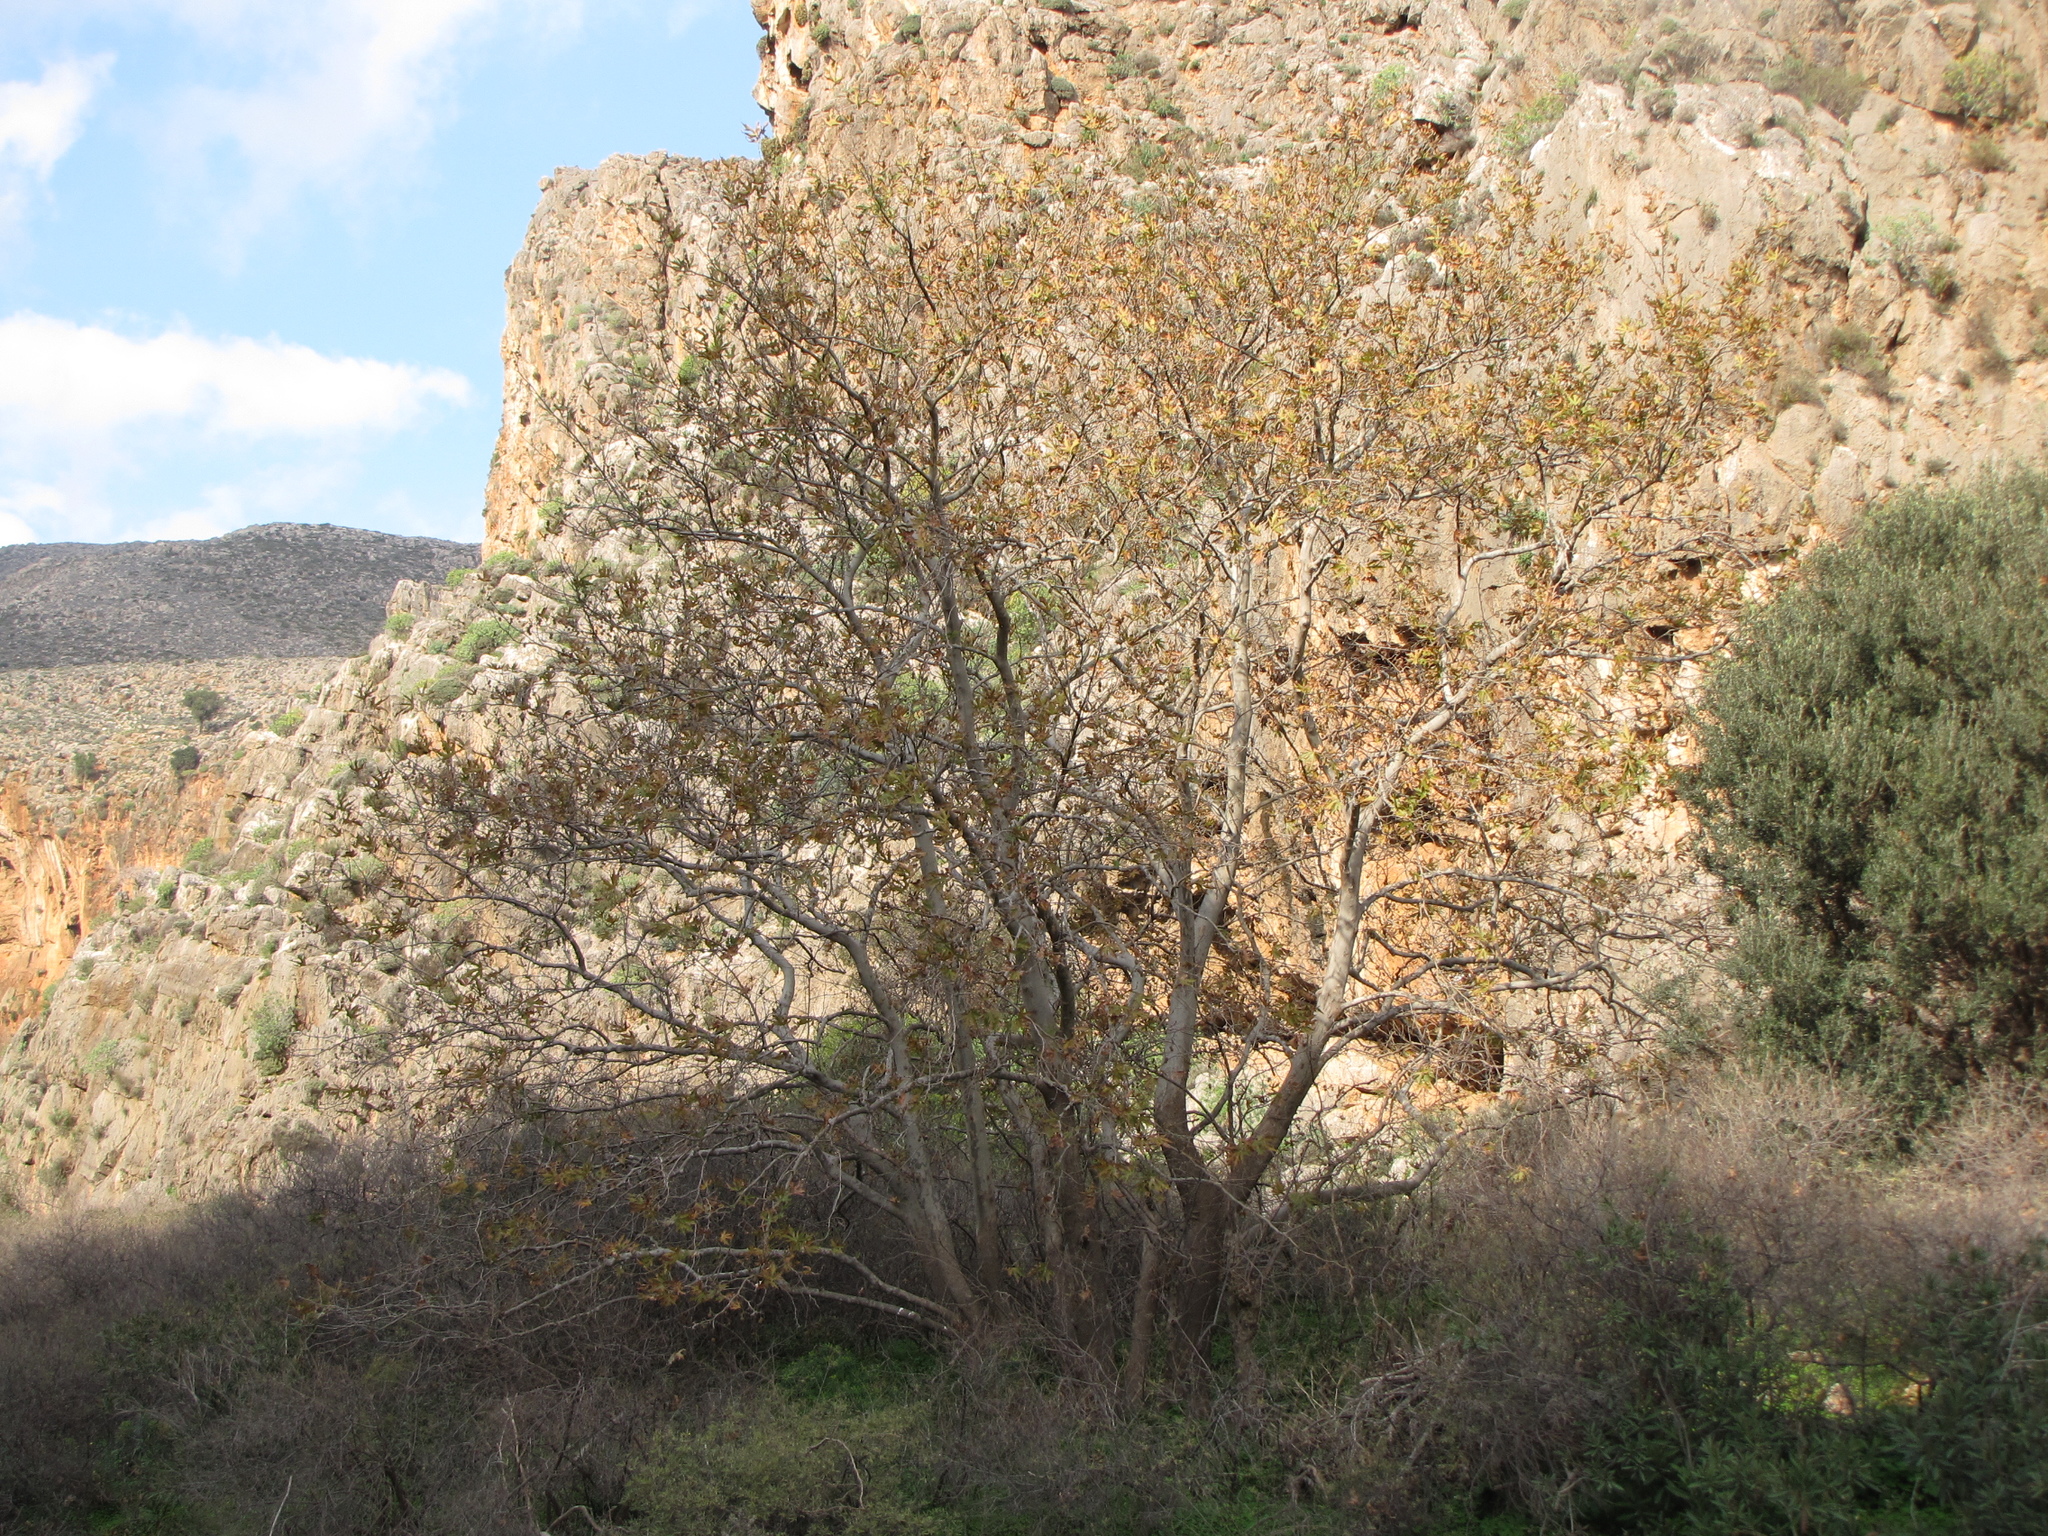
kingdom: Plantae
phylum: Tracheophyta
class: Magnoliopsida
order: Proteales
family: Platanaceae
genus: Platanus
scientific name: Platanus orientalis
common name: Oriental plane
